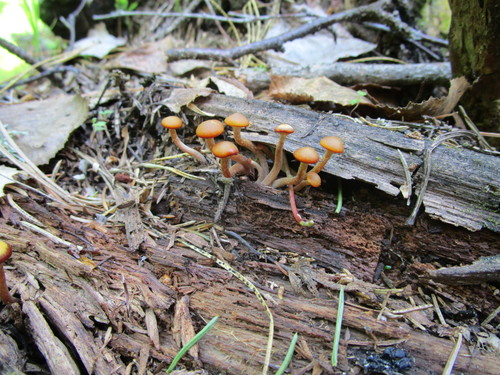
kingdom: Fungi
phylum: Basidiomycota
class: Agaricomycetes
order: Agaricales
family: Strophariaceae
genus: Pholiota
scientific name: Pholiota lignicola
